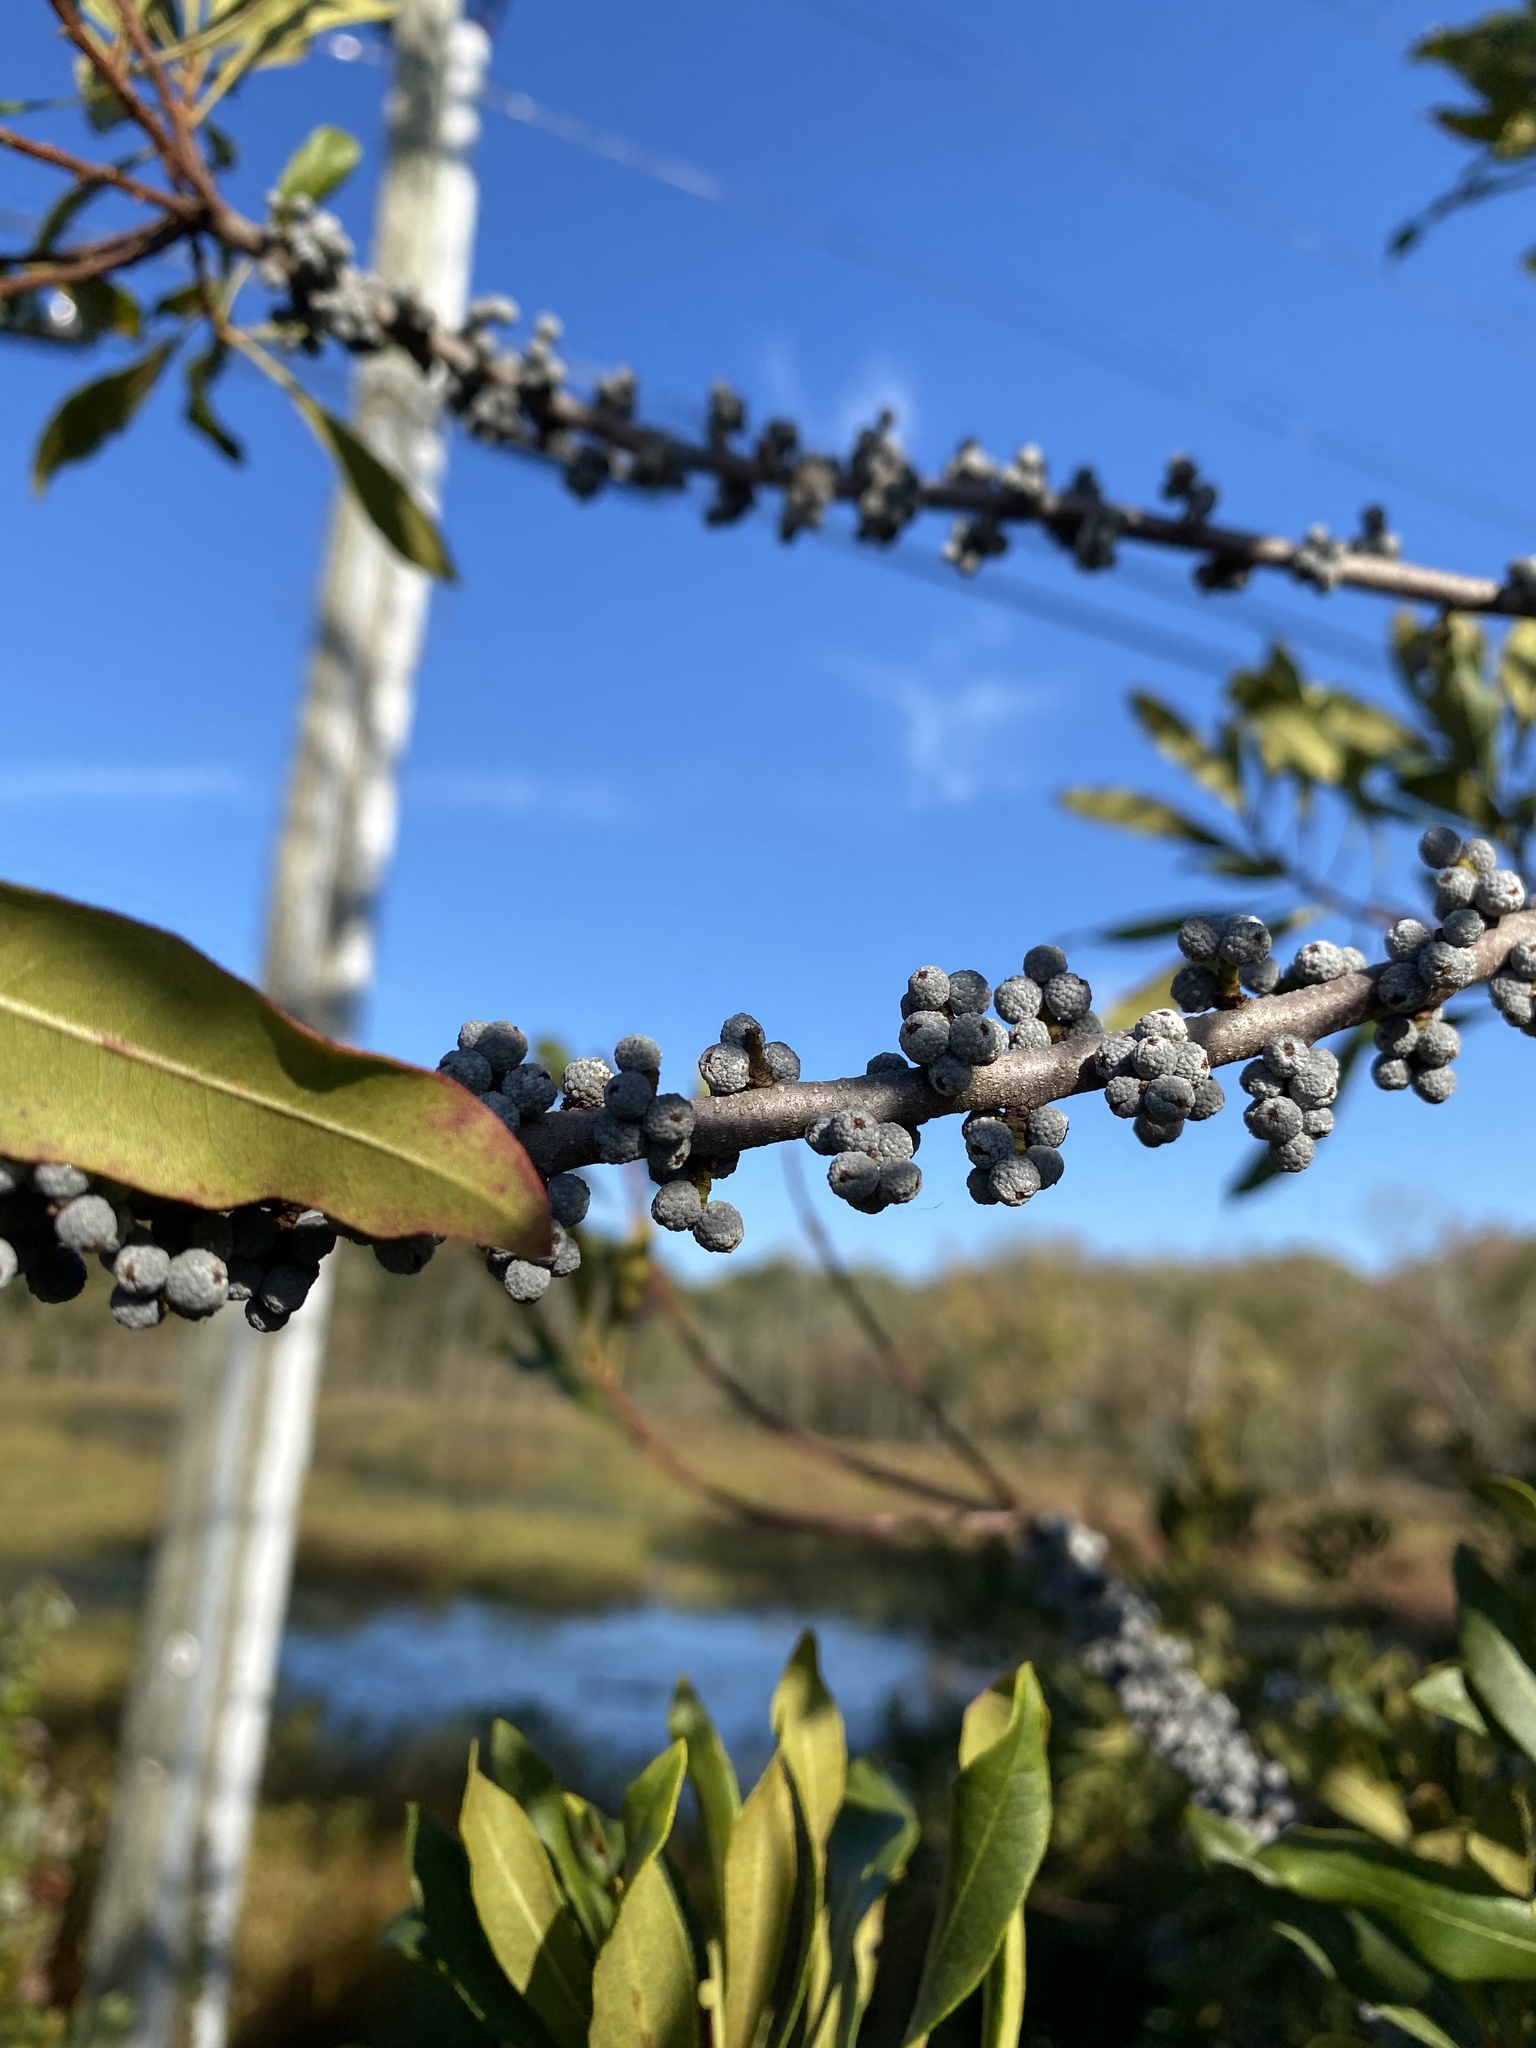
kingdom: Plantae
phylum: Tracheophyta
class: Magnoliopsida
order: Fagales
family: Myricaceae
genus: Morella
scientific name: Morella cerifera
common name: Wax myrtle
